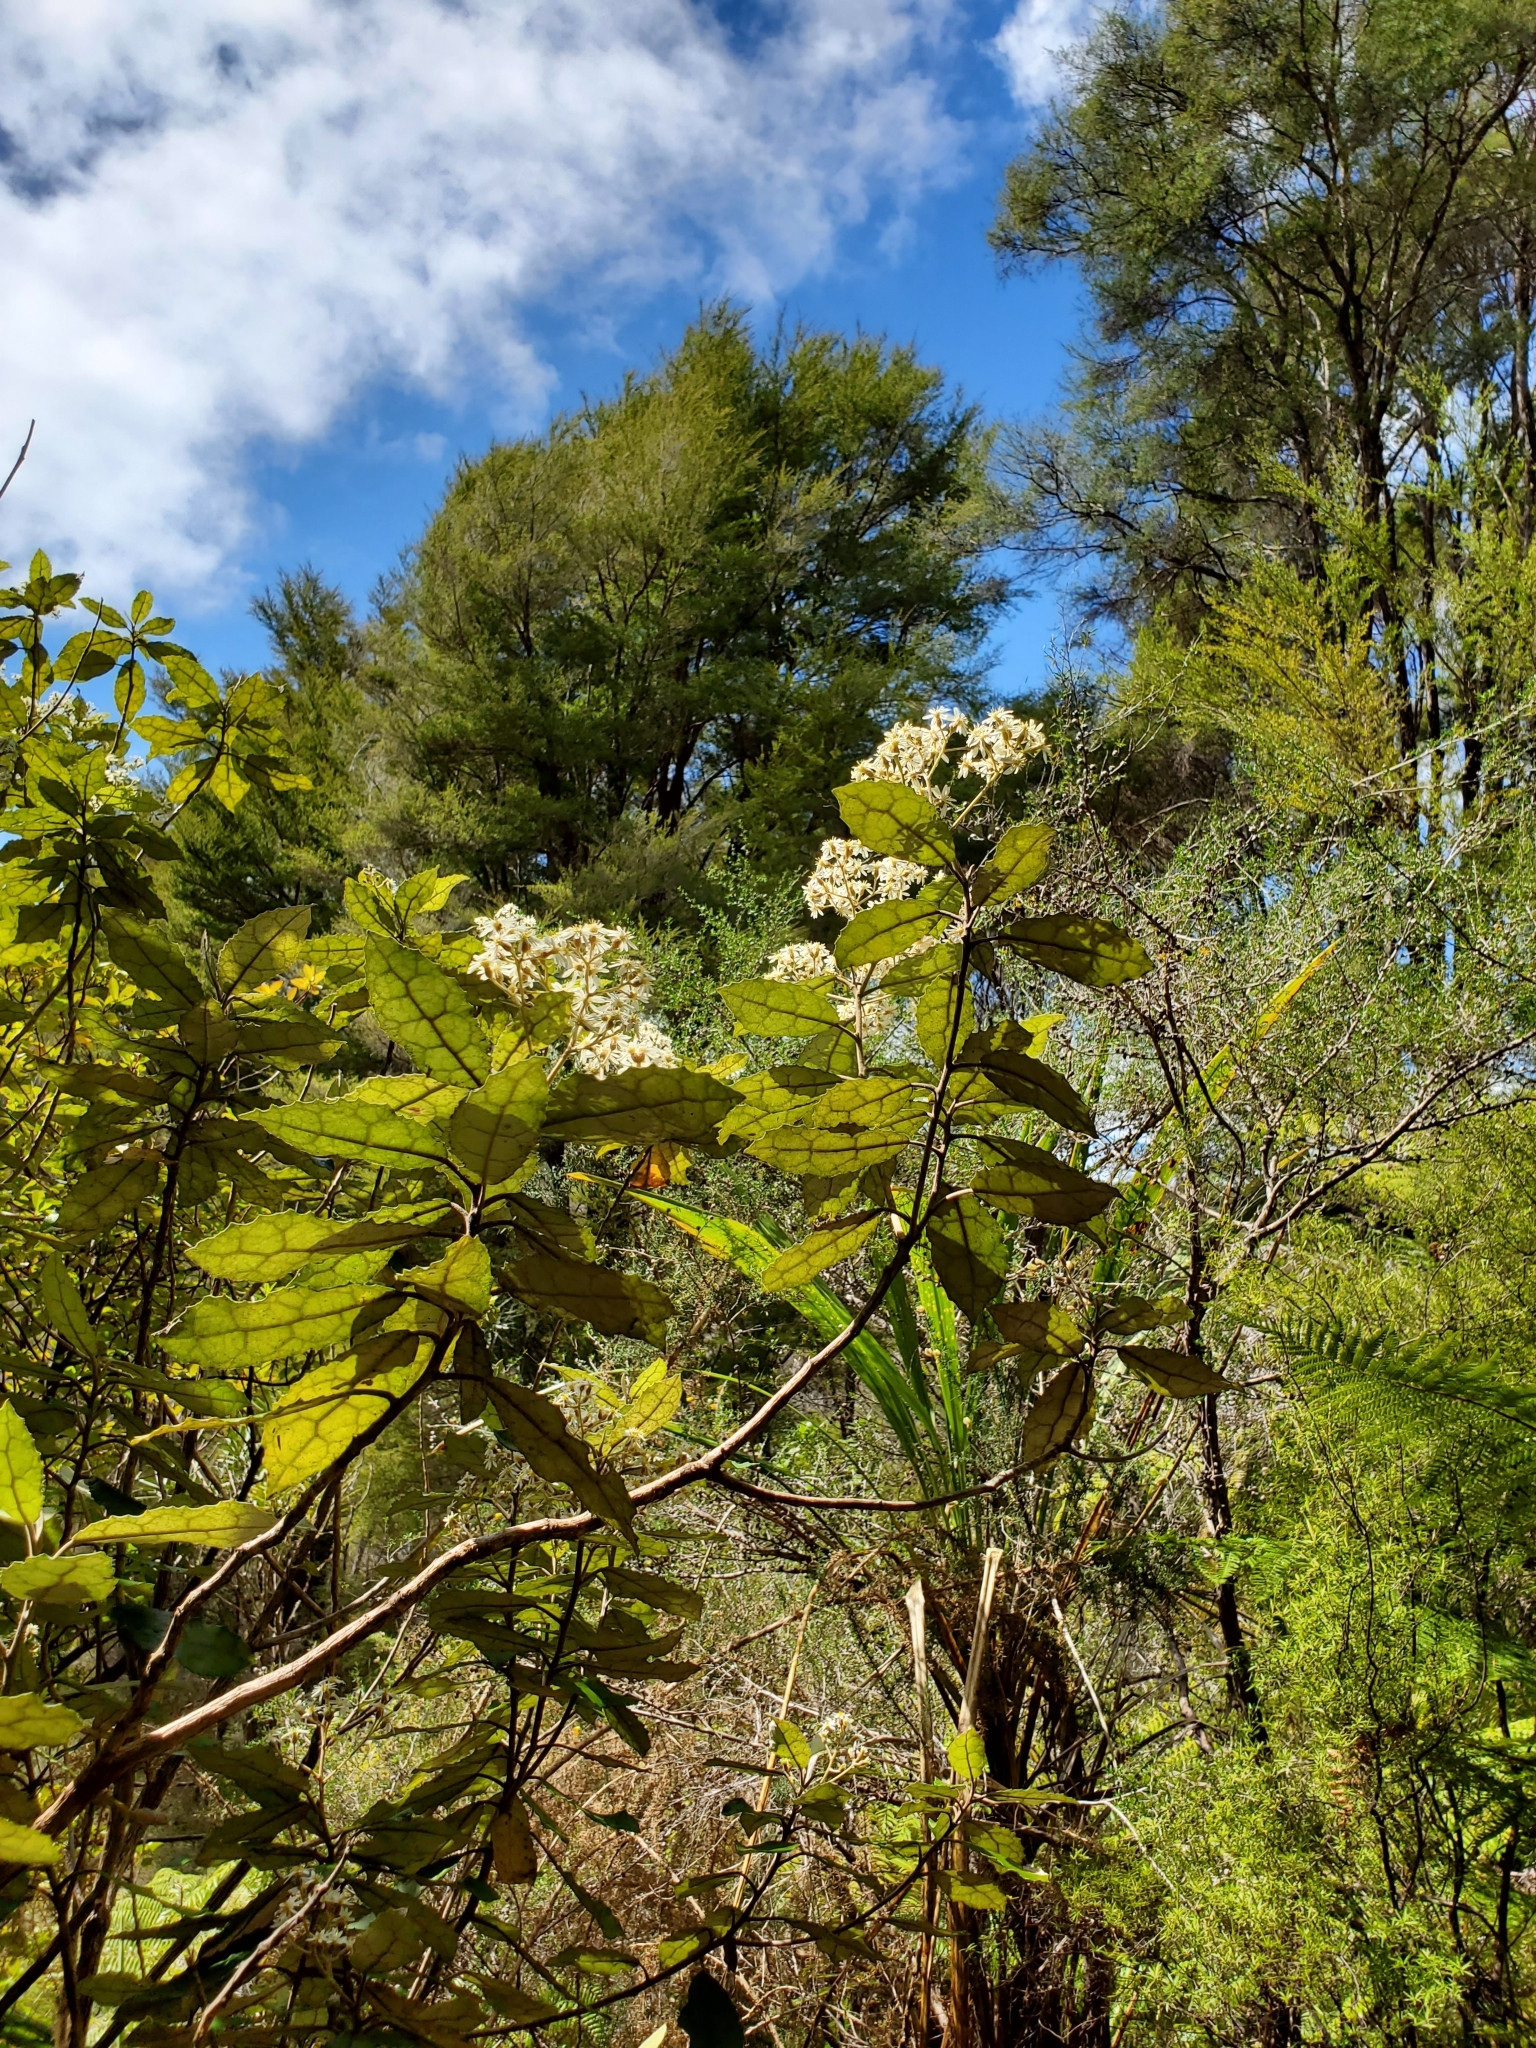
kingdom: Plantae
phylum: Tracheophyta
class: Magnoliopsida
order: Asterales
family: Asteraceae
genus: Olearia
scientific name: Olearia rani
